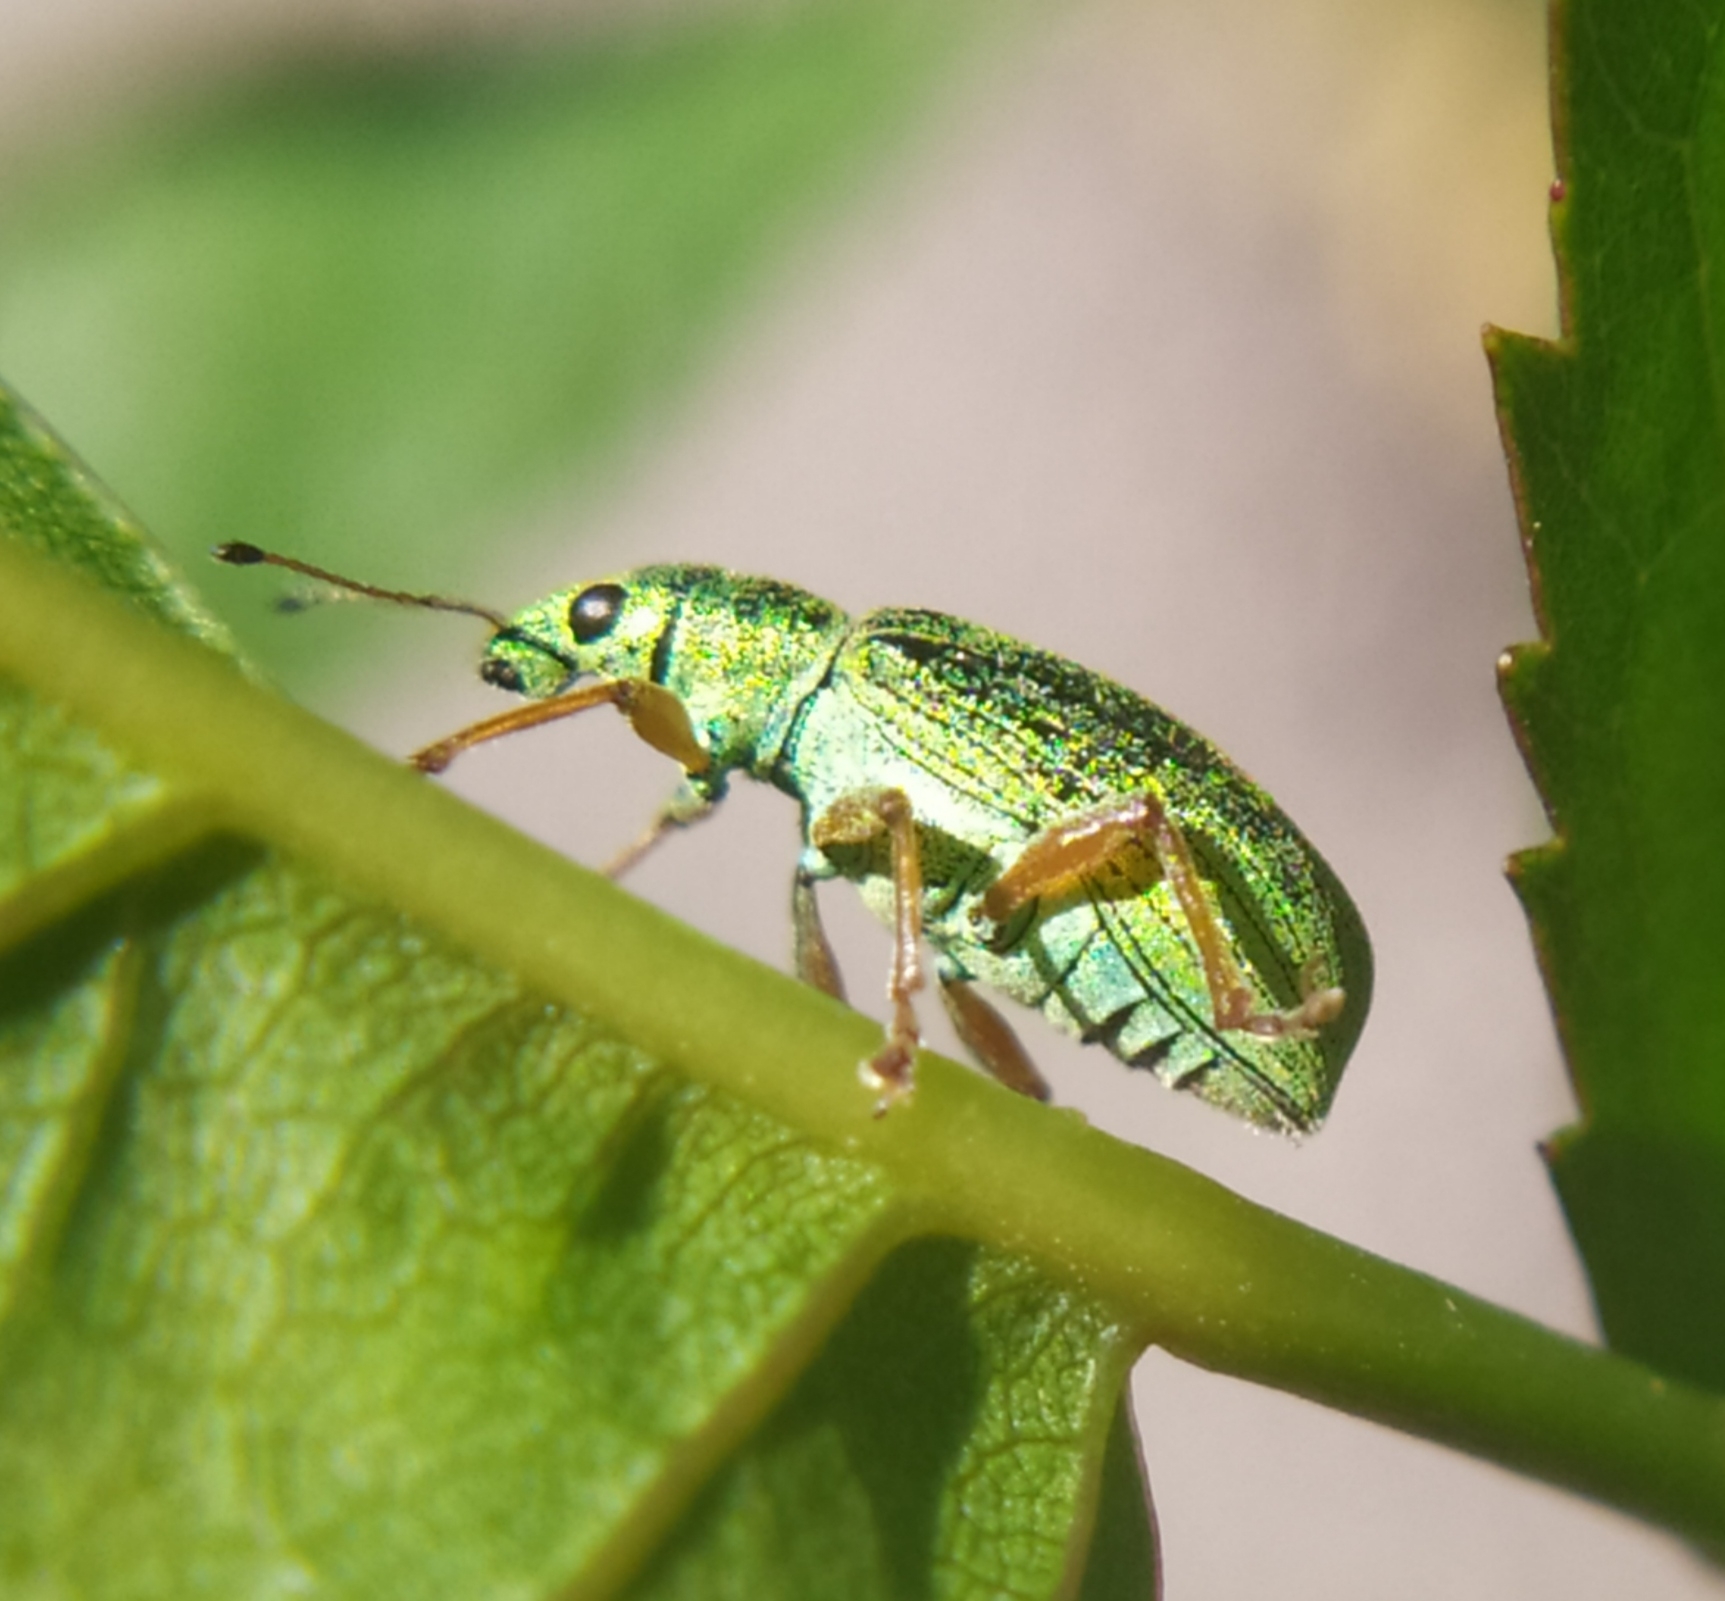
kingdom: Animalia
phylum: Arthropoda
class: Insecta
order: Coleoptera
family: Curculionidae
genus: Polydrusus
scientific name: Polydrusus formosus
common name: Weevil
